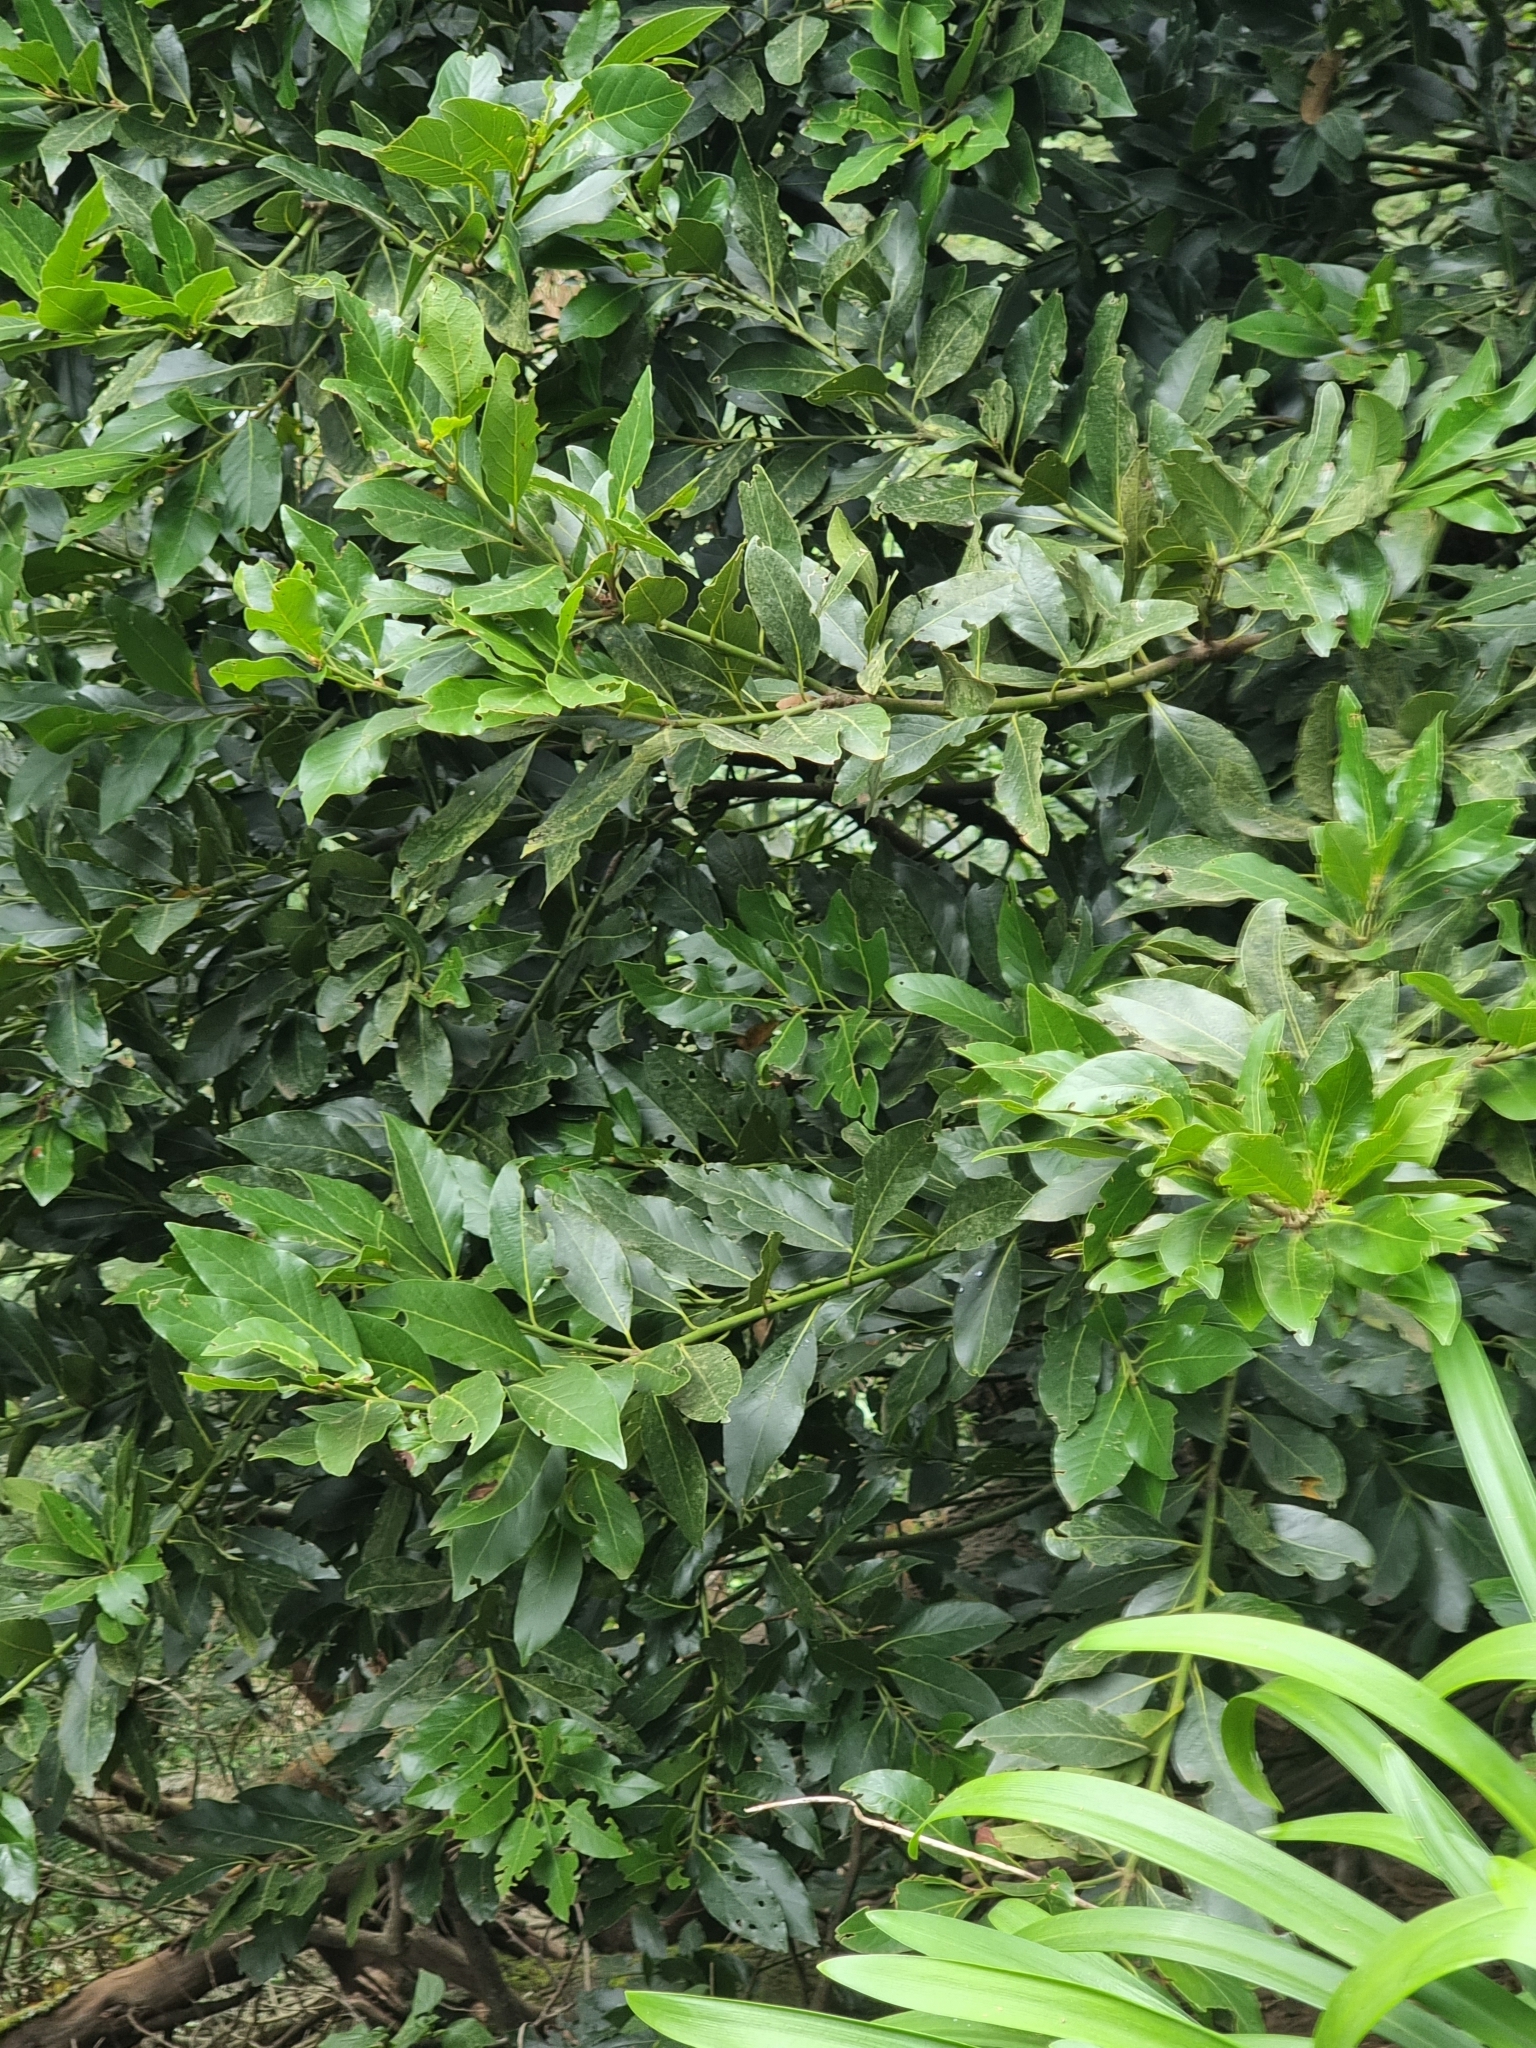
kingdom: Plantae
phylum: Tracheophyta
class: Magnoliopsida
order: Laurales
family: Lauraceae
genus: Laurus
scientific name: Laurus novocanariensis
